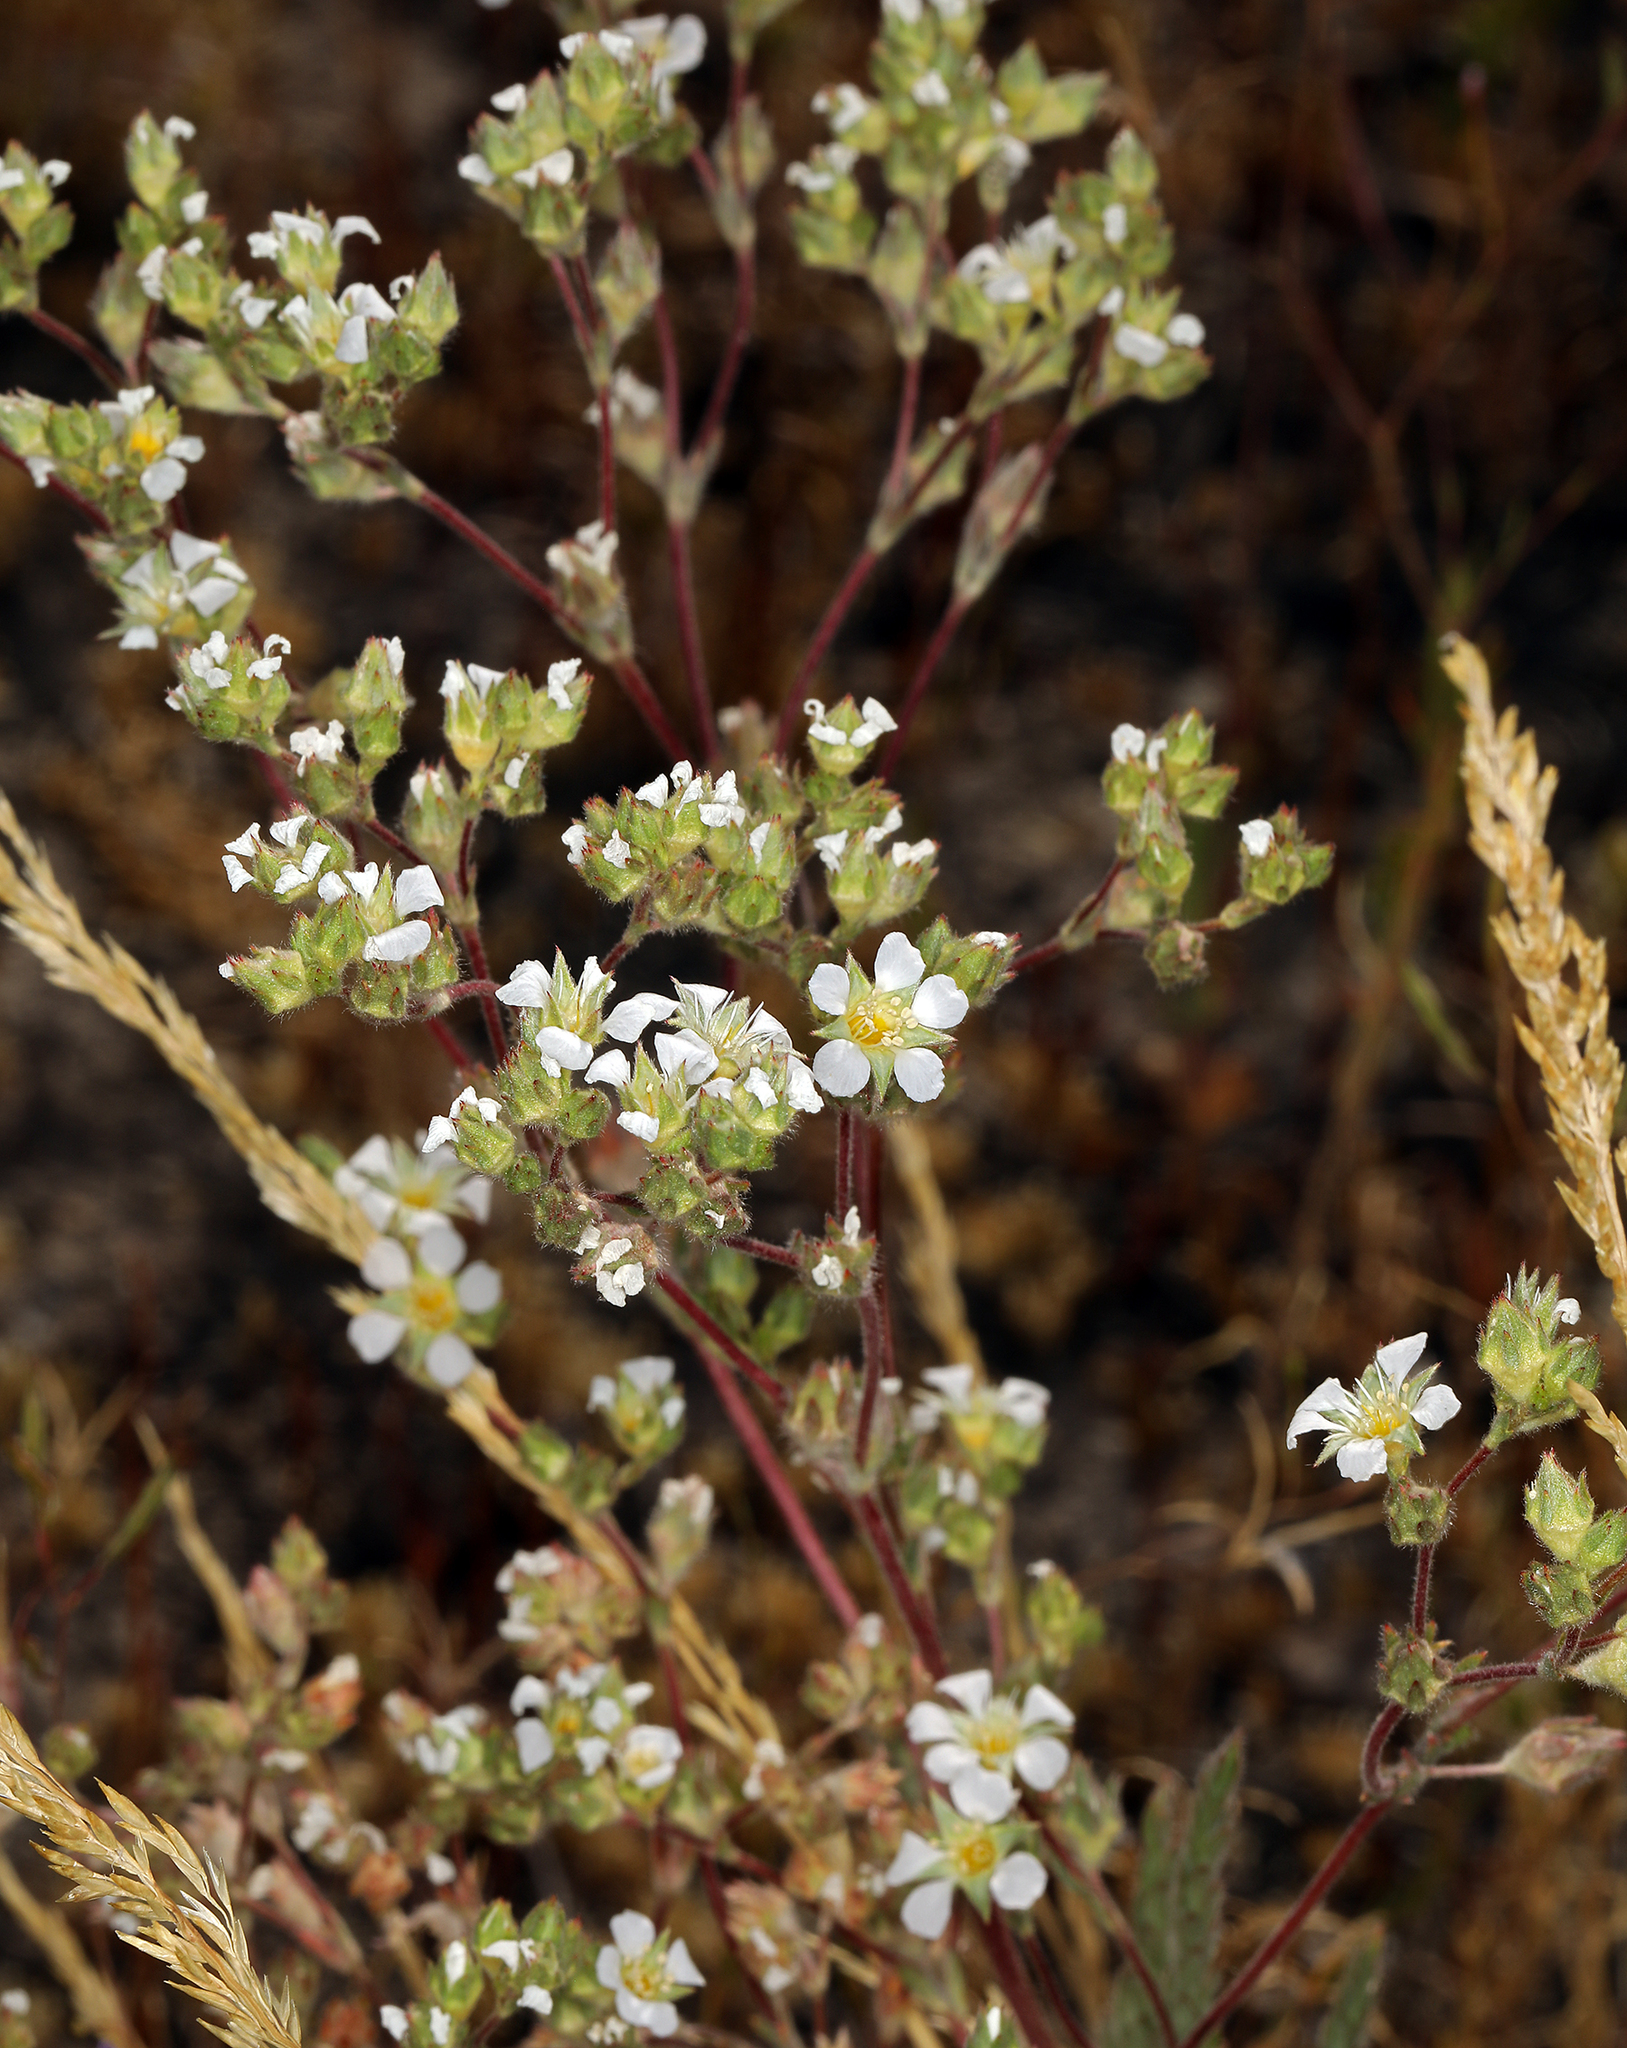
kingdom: Plantae
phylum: Tracheophyta
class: Magnoliopsida
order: Rosales
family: Rosaceae
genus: Potentilla
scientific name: Potentilla sericoleuca
